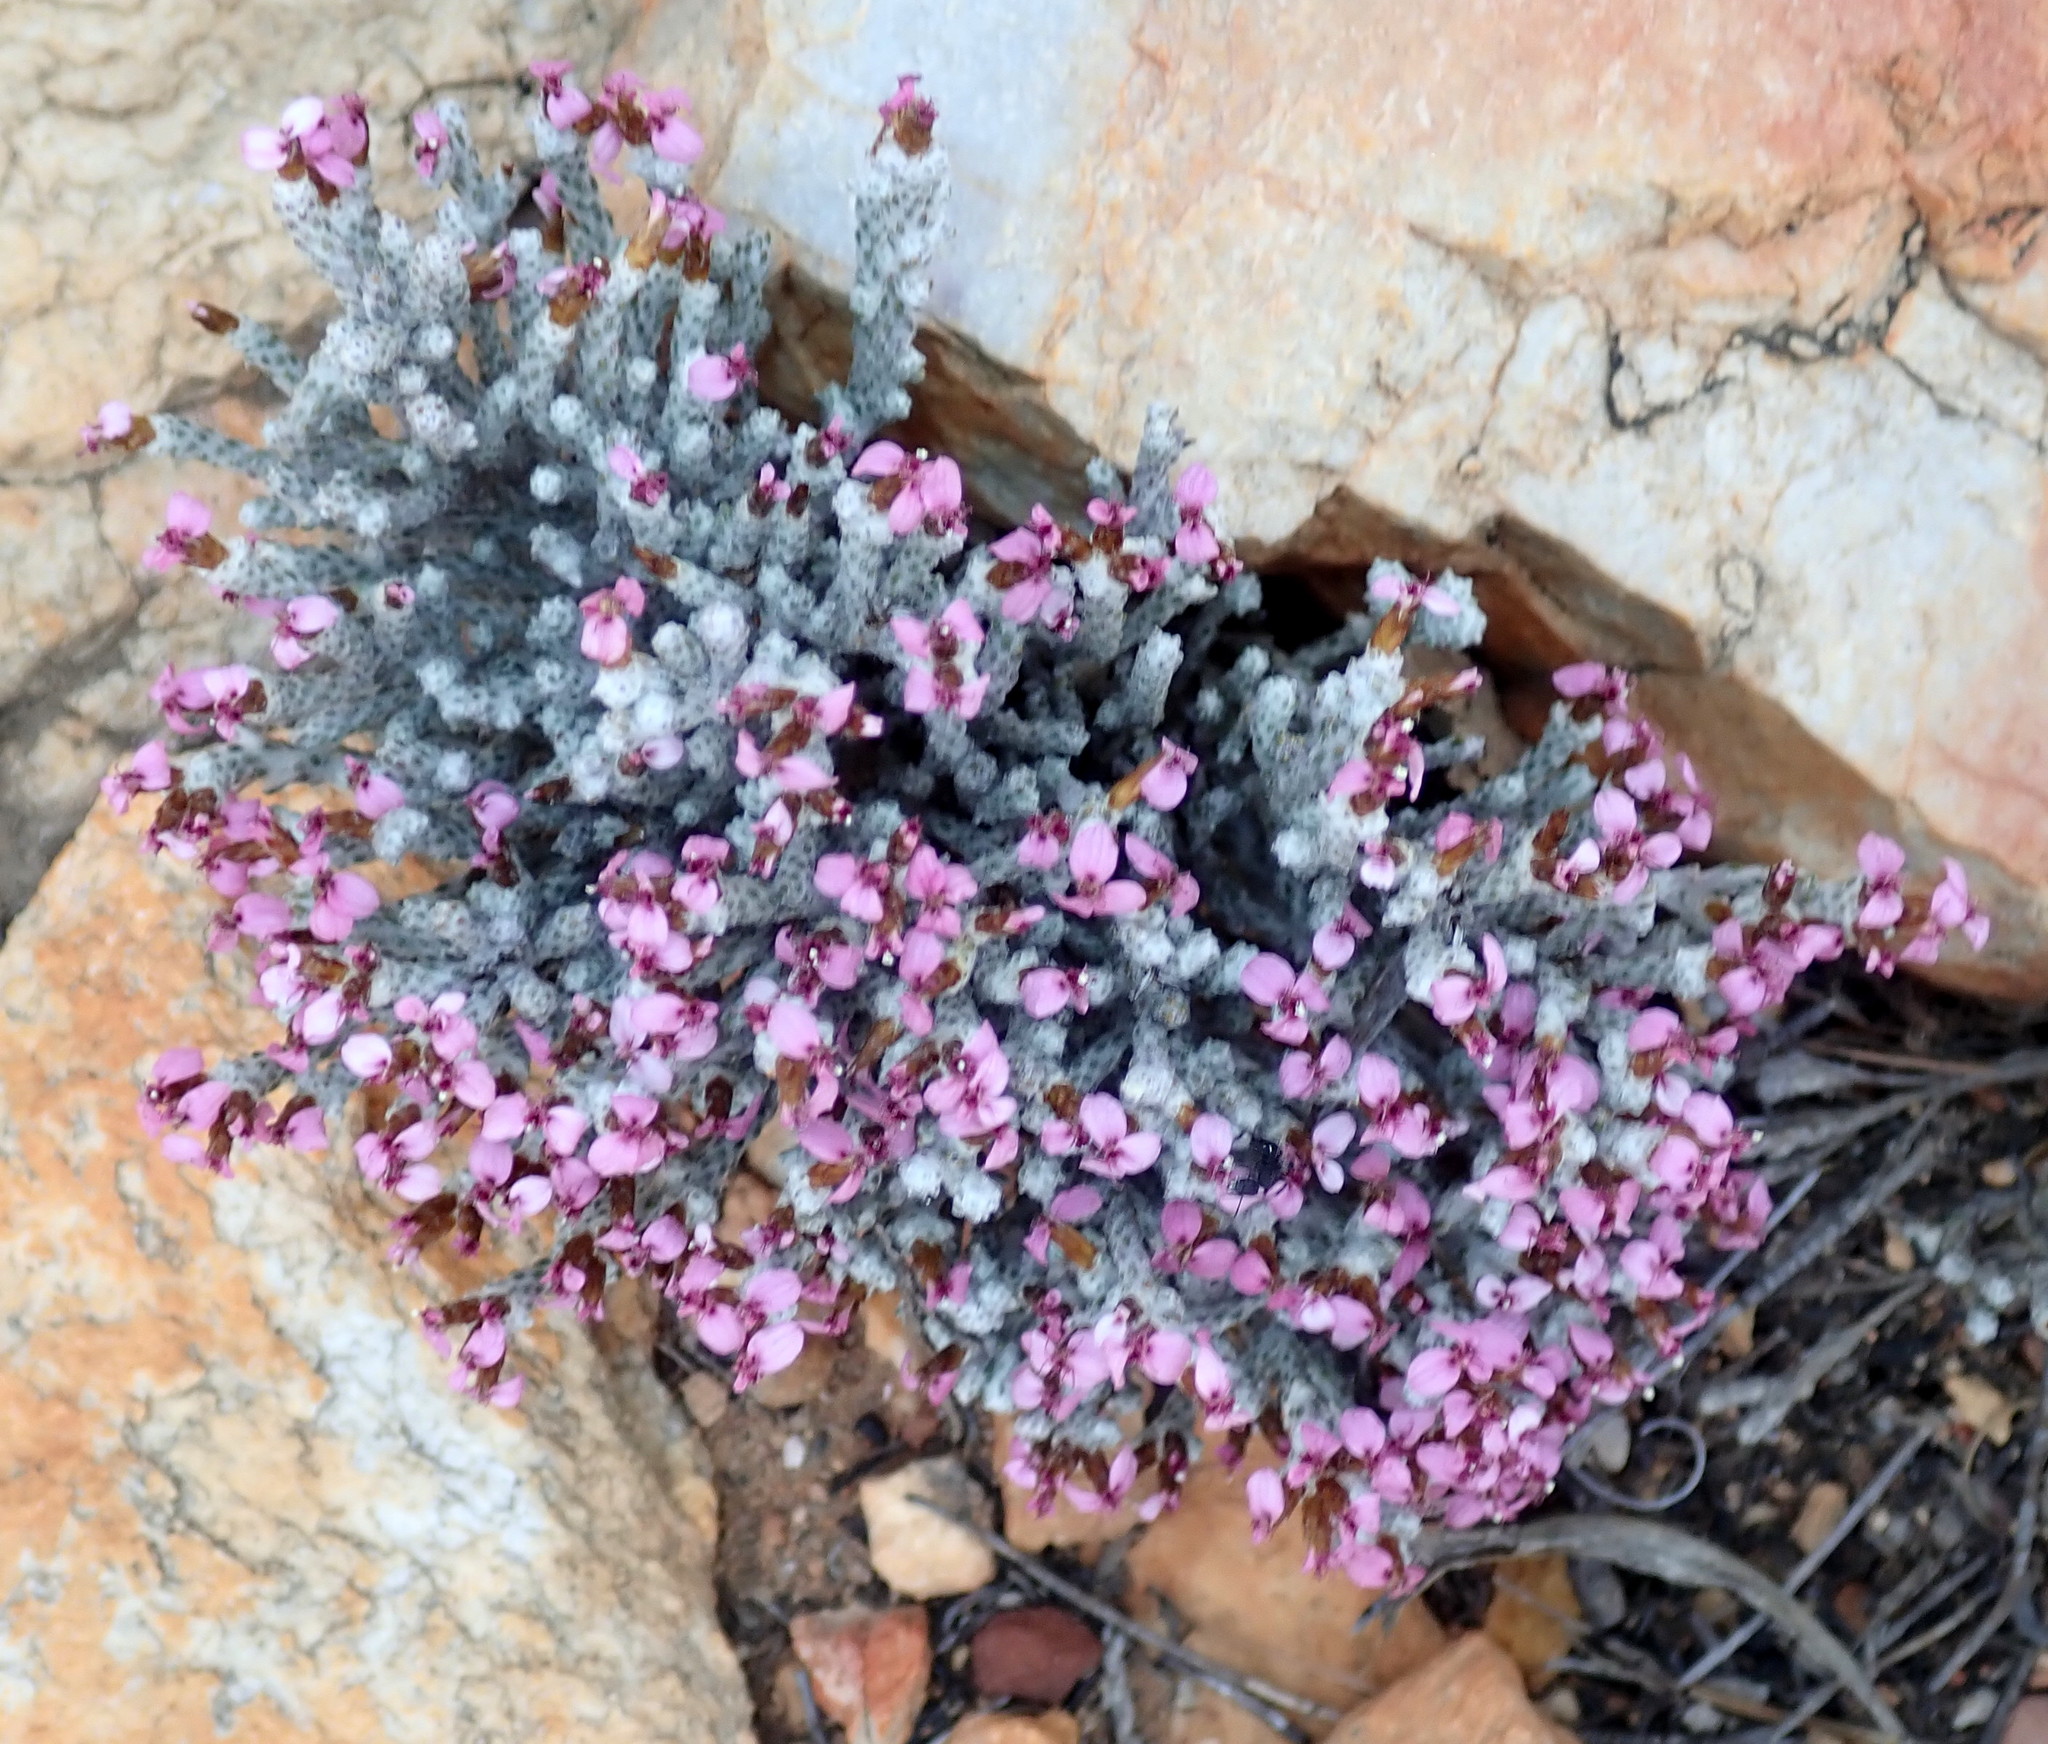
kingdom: Plantae
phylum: Tracheophyta
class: Magnoliopsida
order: Asterales
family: Asteraceae
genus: Disparago
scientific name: Disparago kolbei
